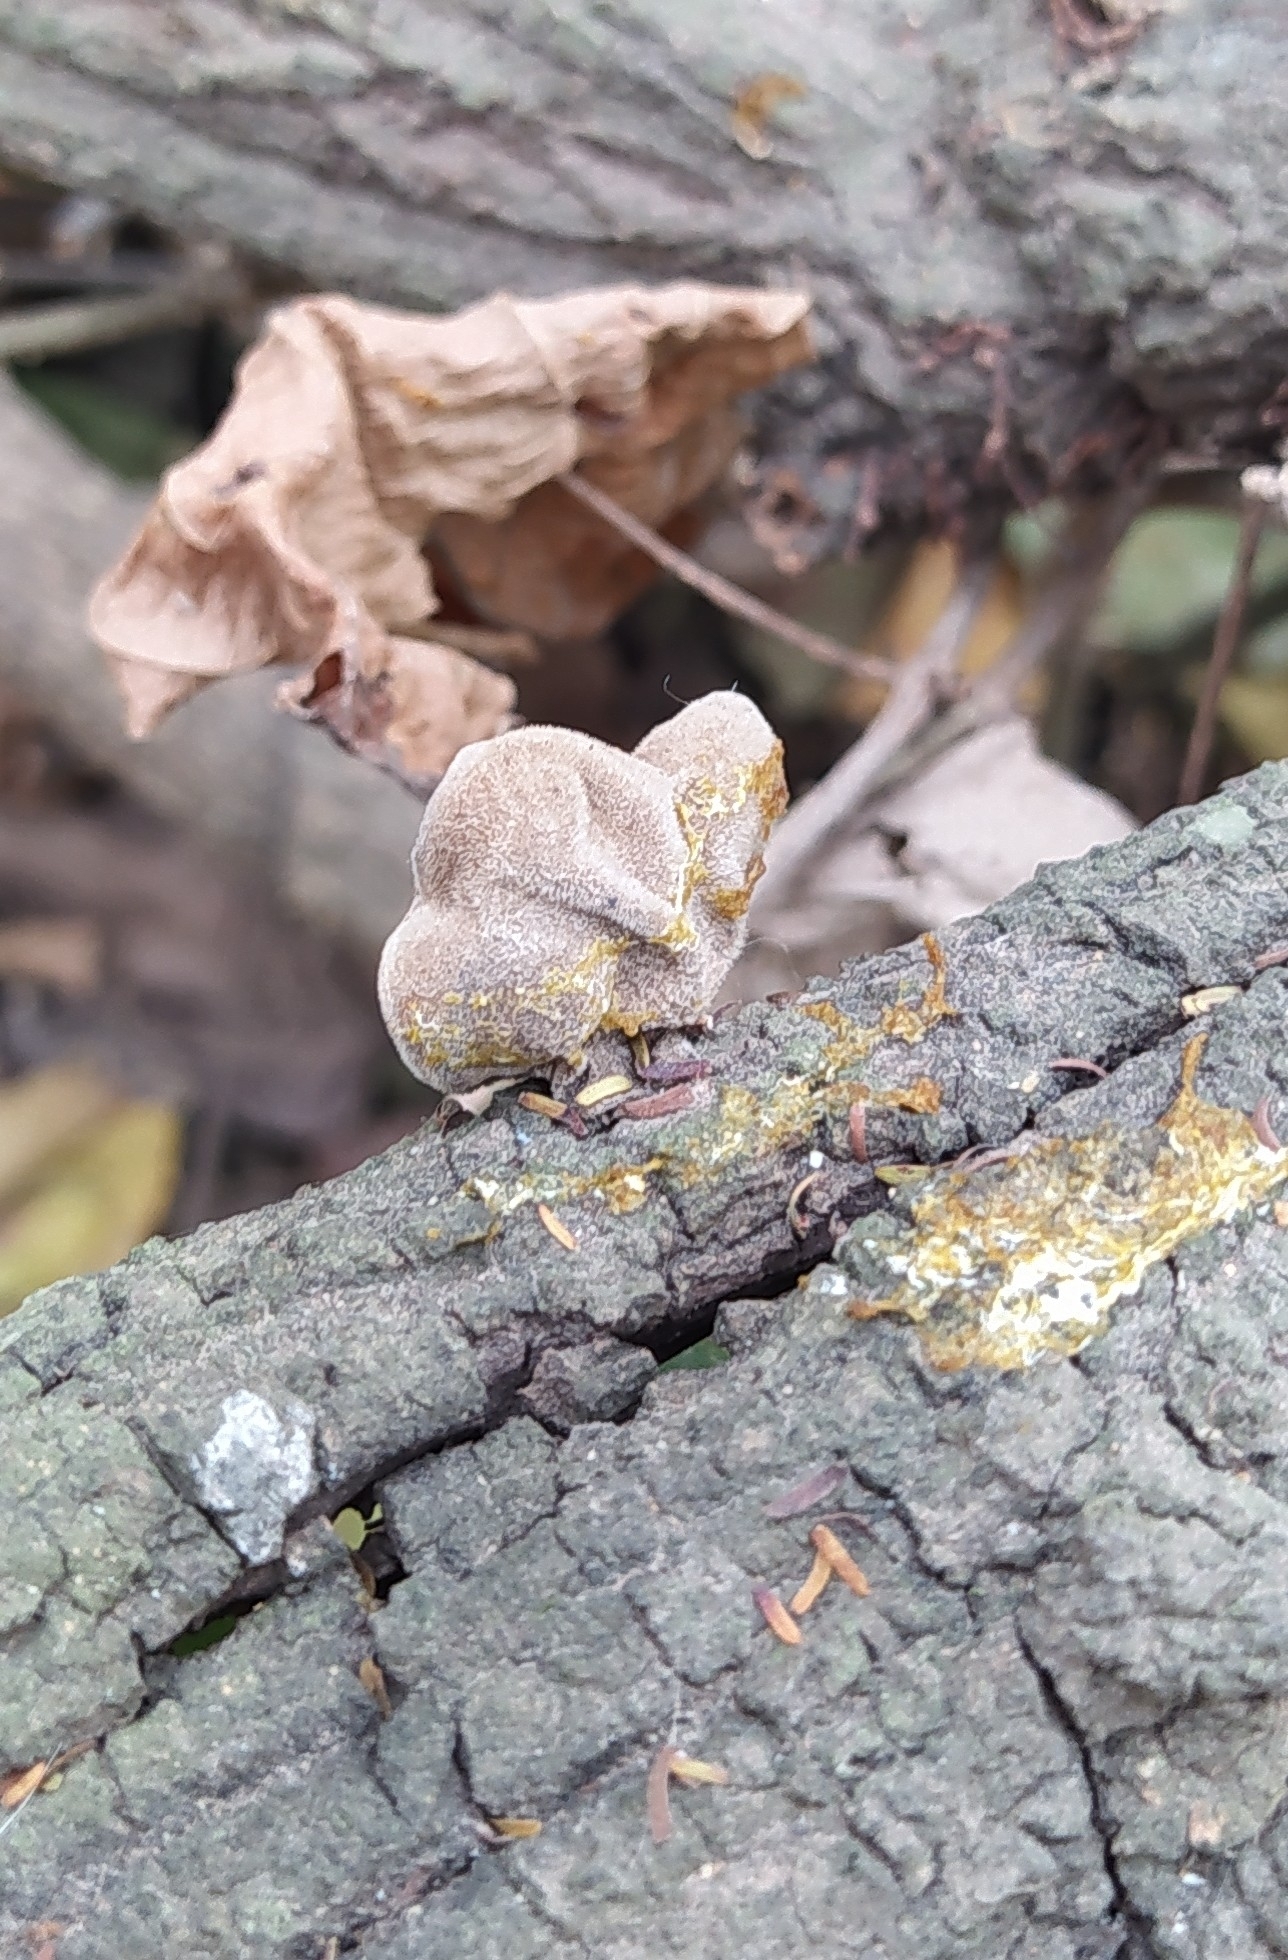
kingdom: Fungi
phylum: Basidiomycota
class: Agaricomycetes
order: Auriculariales
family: Auriculariaceae
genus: Auricularia
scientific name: Auricularia nigricans
